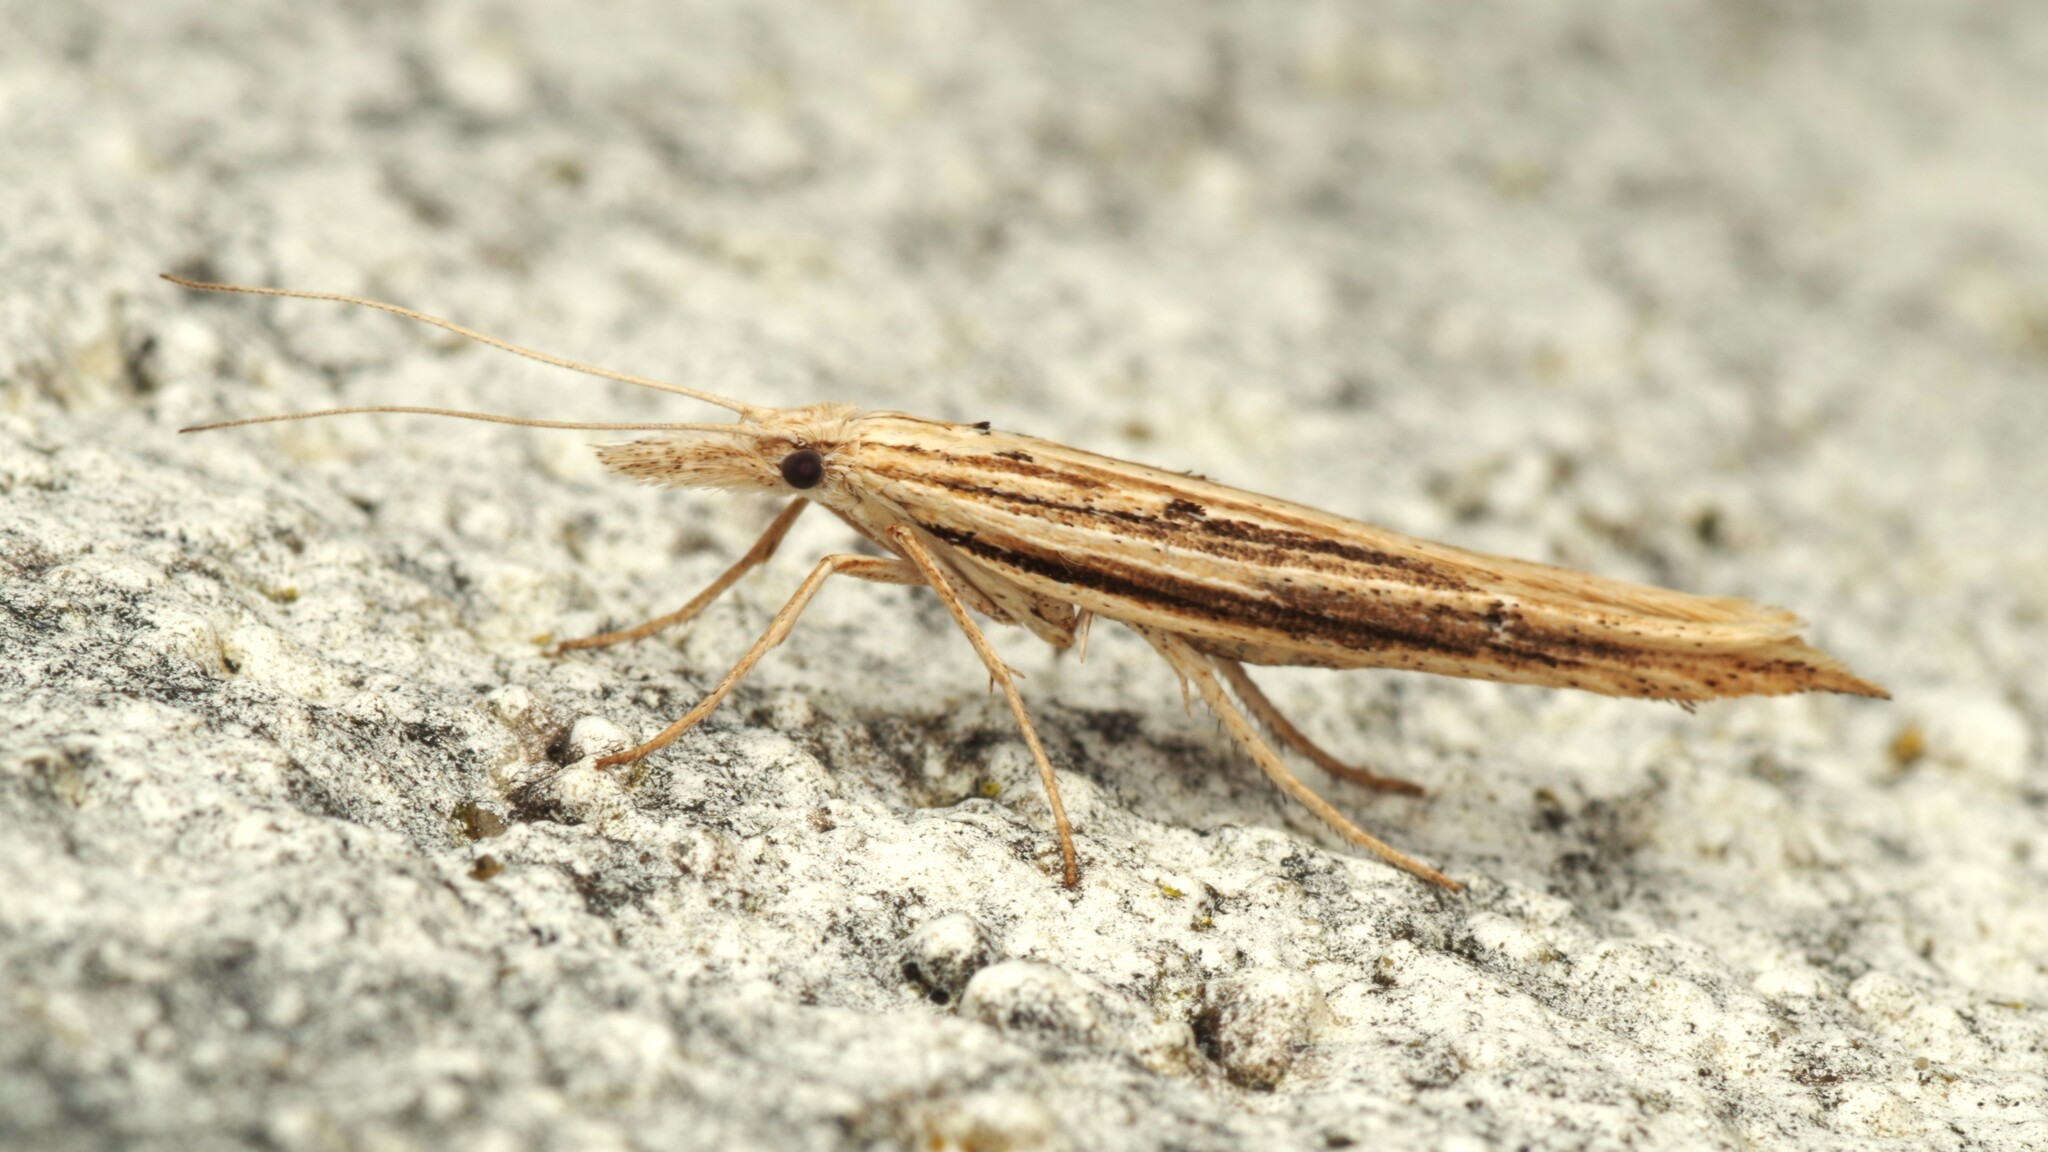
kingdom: Animalia
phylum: Arthropoda
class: Insecta
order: Lepidoptera
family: Ypsolophidae
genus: Ypsolopha
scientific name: Ypsolopha mucronella
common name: Spindle smudge
